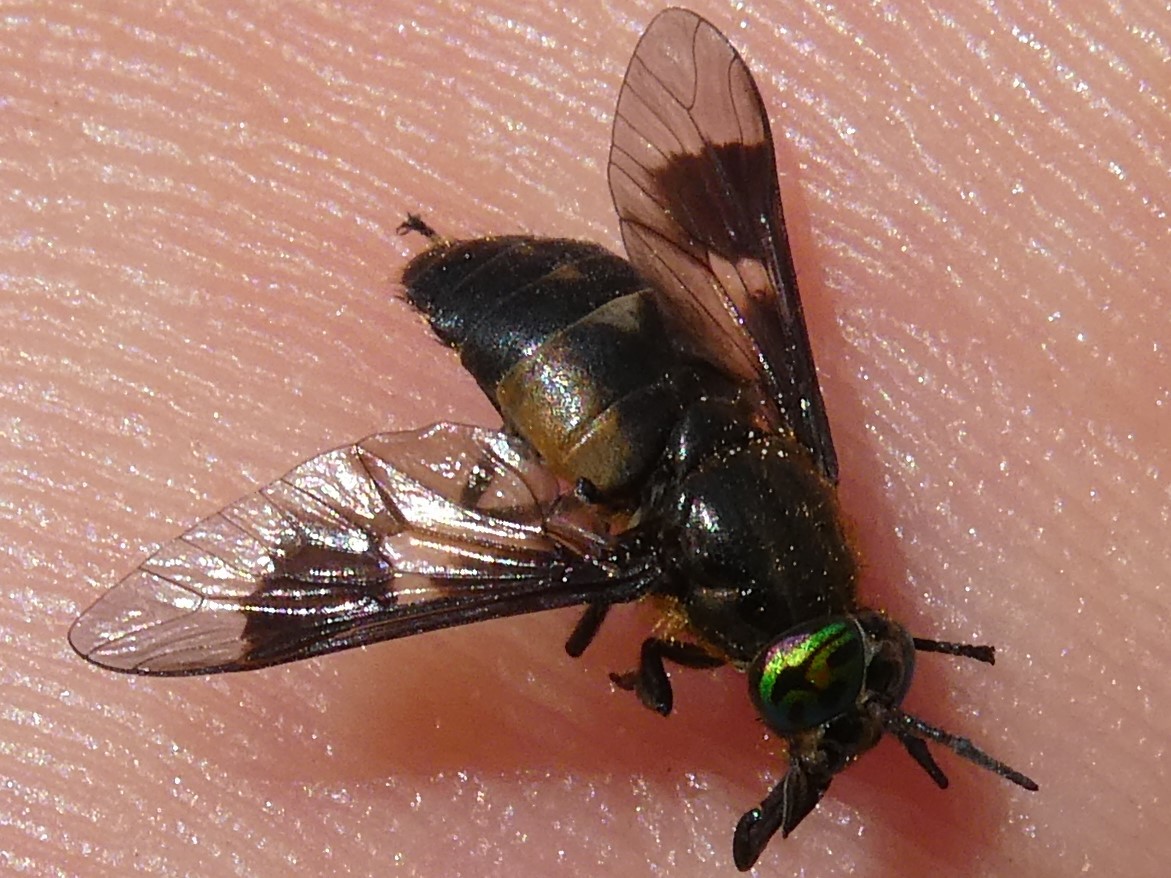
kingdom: Animalia
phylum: Arthropoda
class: Insecta
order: Diptera
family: Tabanidae
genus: Chrysops
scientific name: Chrysops excitans
